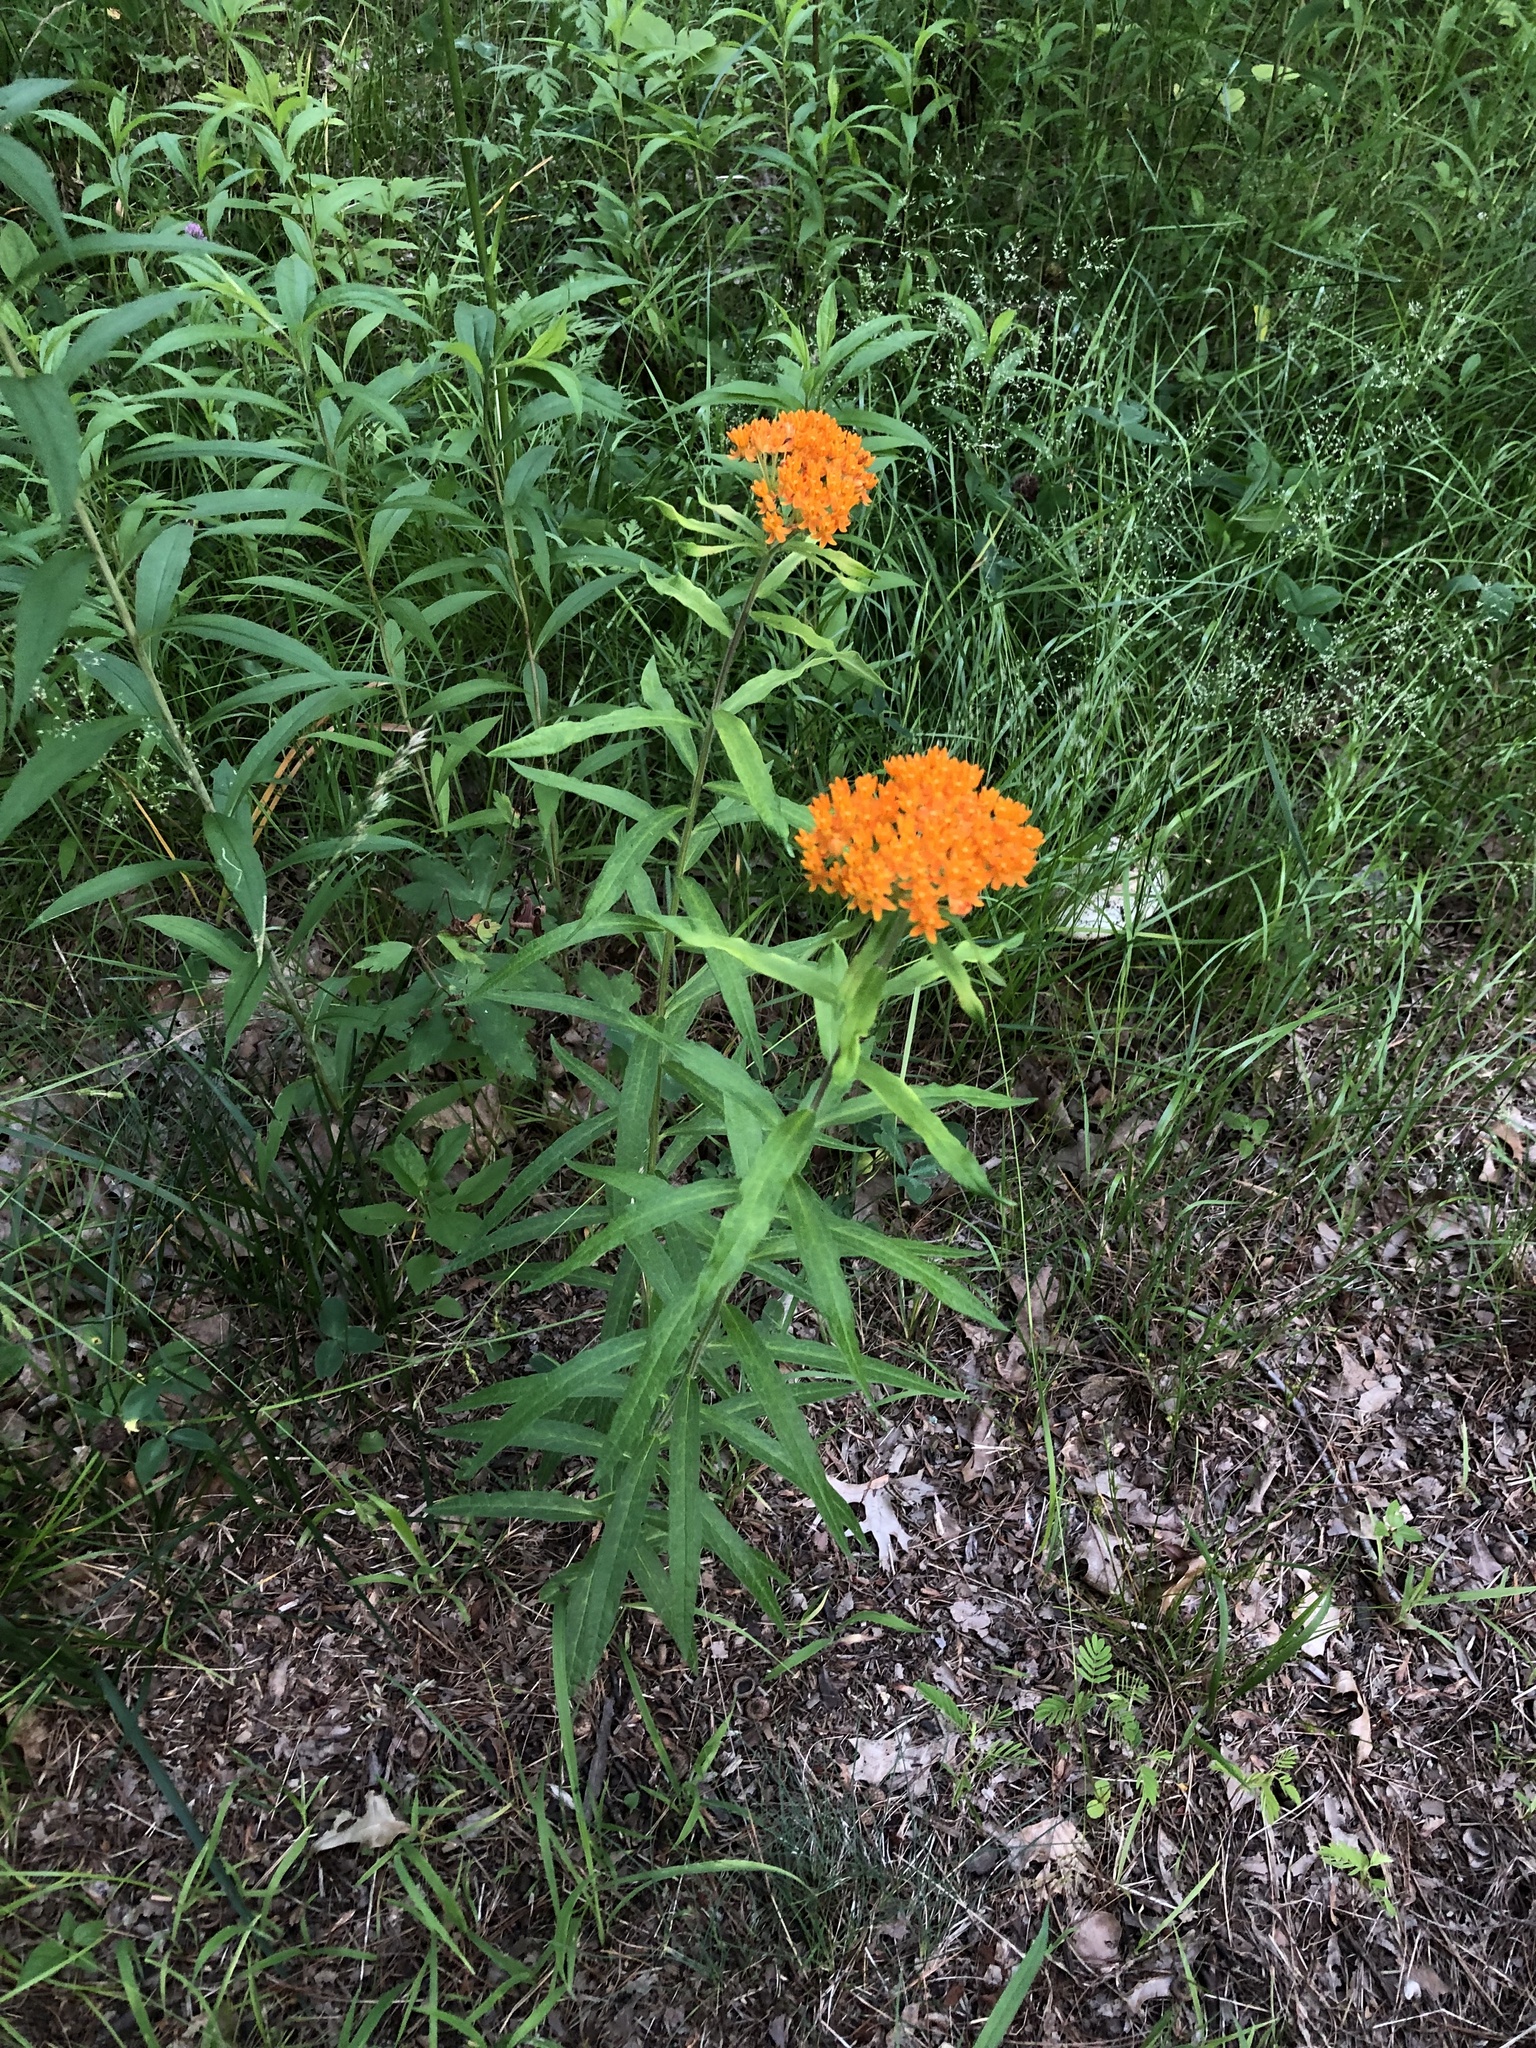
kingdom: Plantae
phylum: Tracheophyta
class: Magnoliopsida
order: Gentianales
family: Apocynaceae
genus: Asclepias
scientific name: Asclepias tuberosa
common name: Butterfly milkweed
